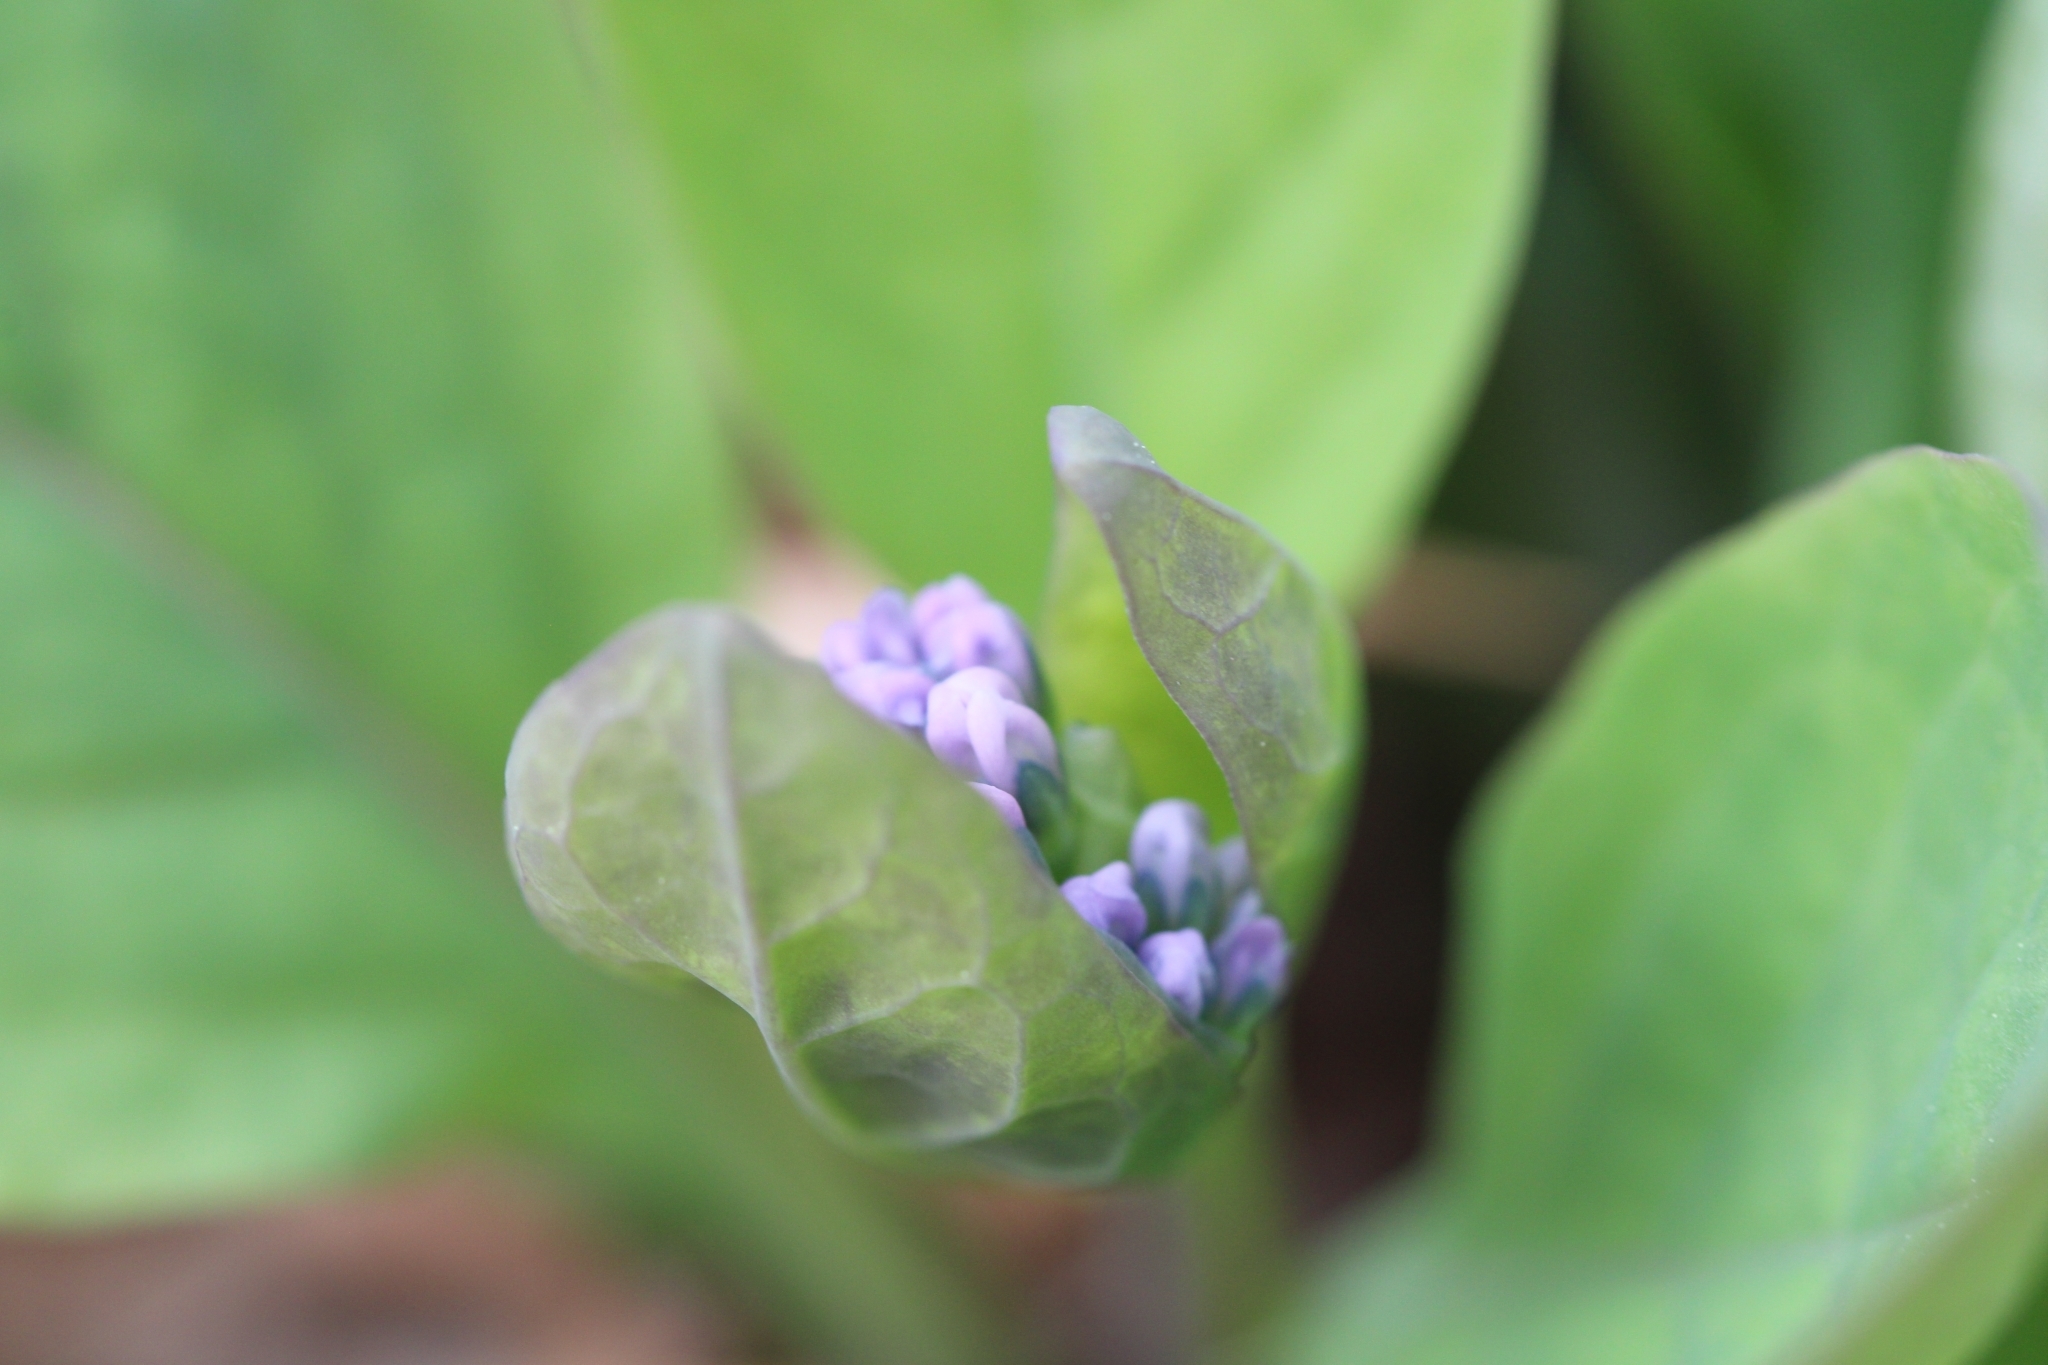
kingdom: Plantae
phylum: Tracheophyta
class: Magnoliopsida
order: Boraginales
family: Boraginaceae
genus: Mertensia
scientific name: Mertensia virginica
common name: Virginia bluebells
